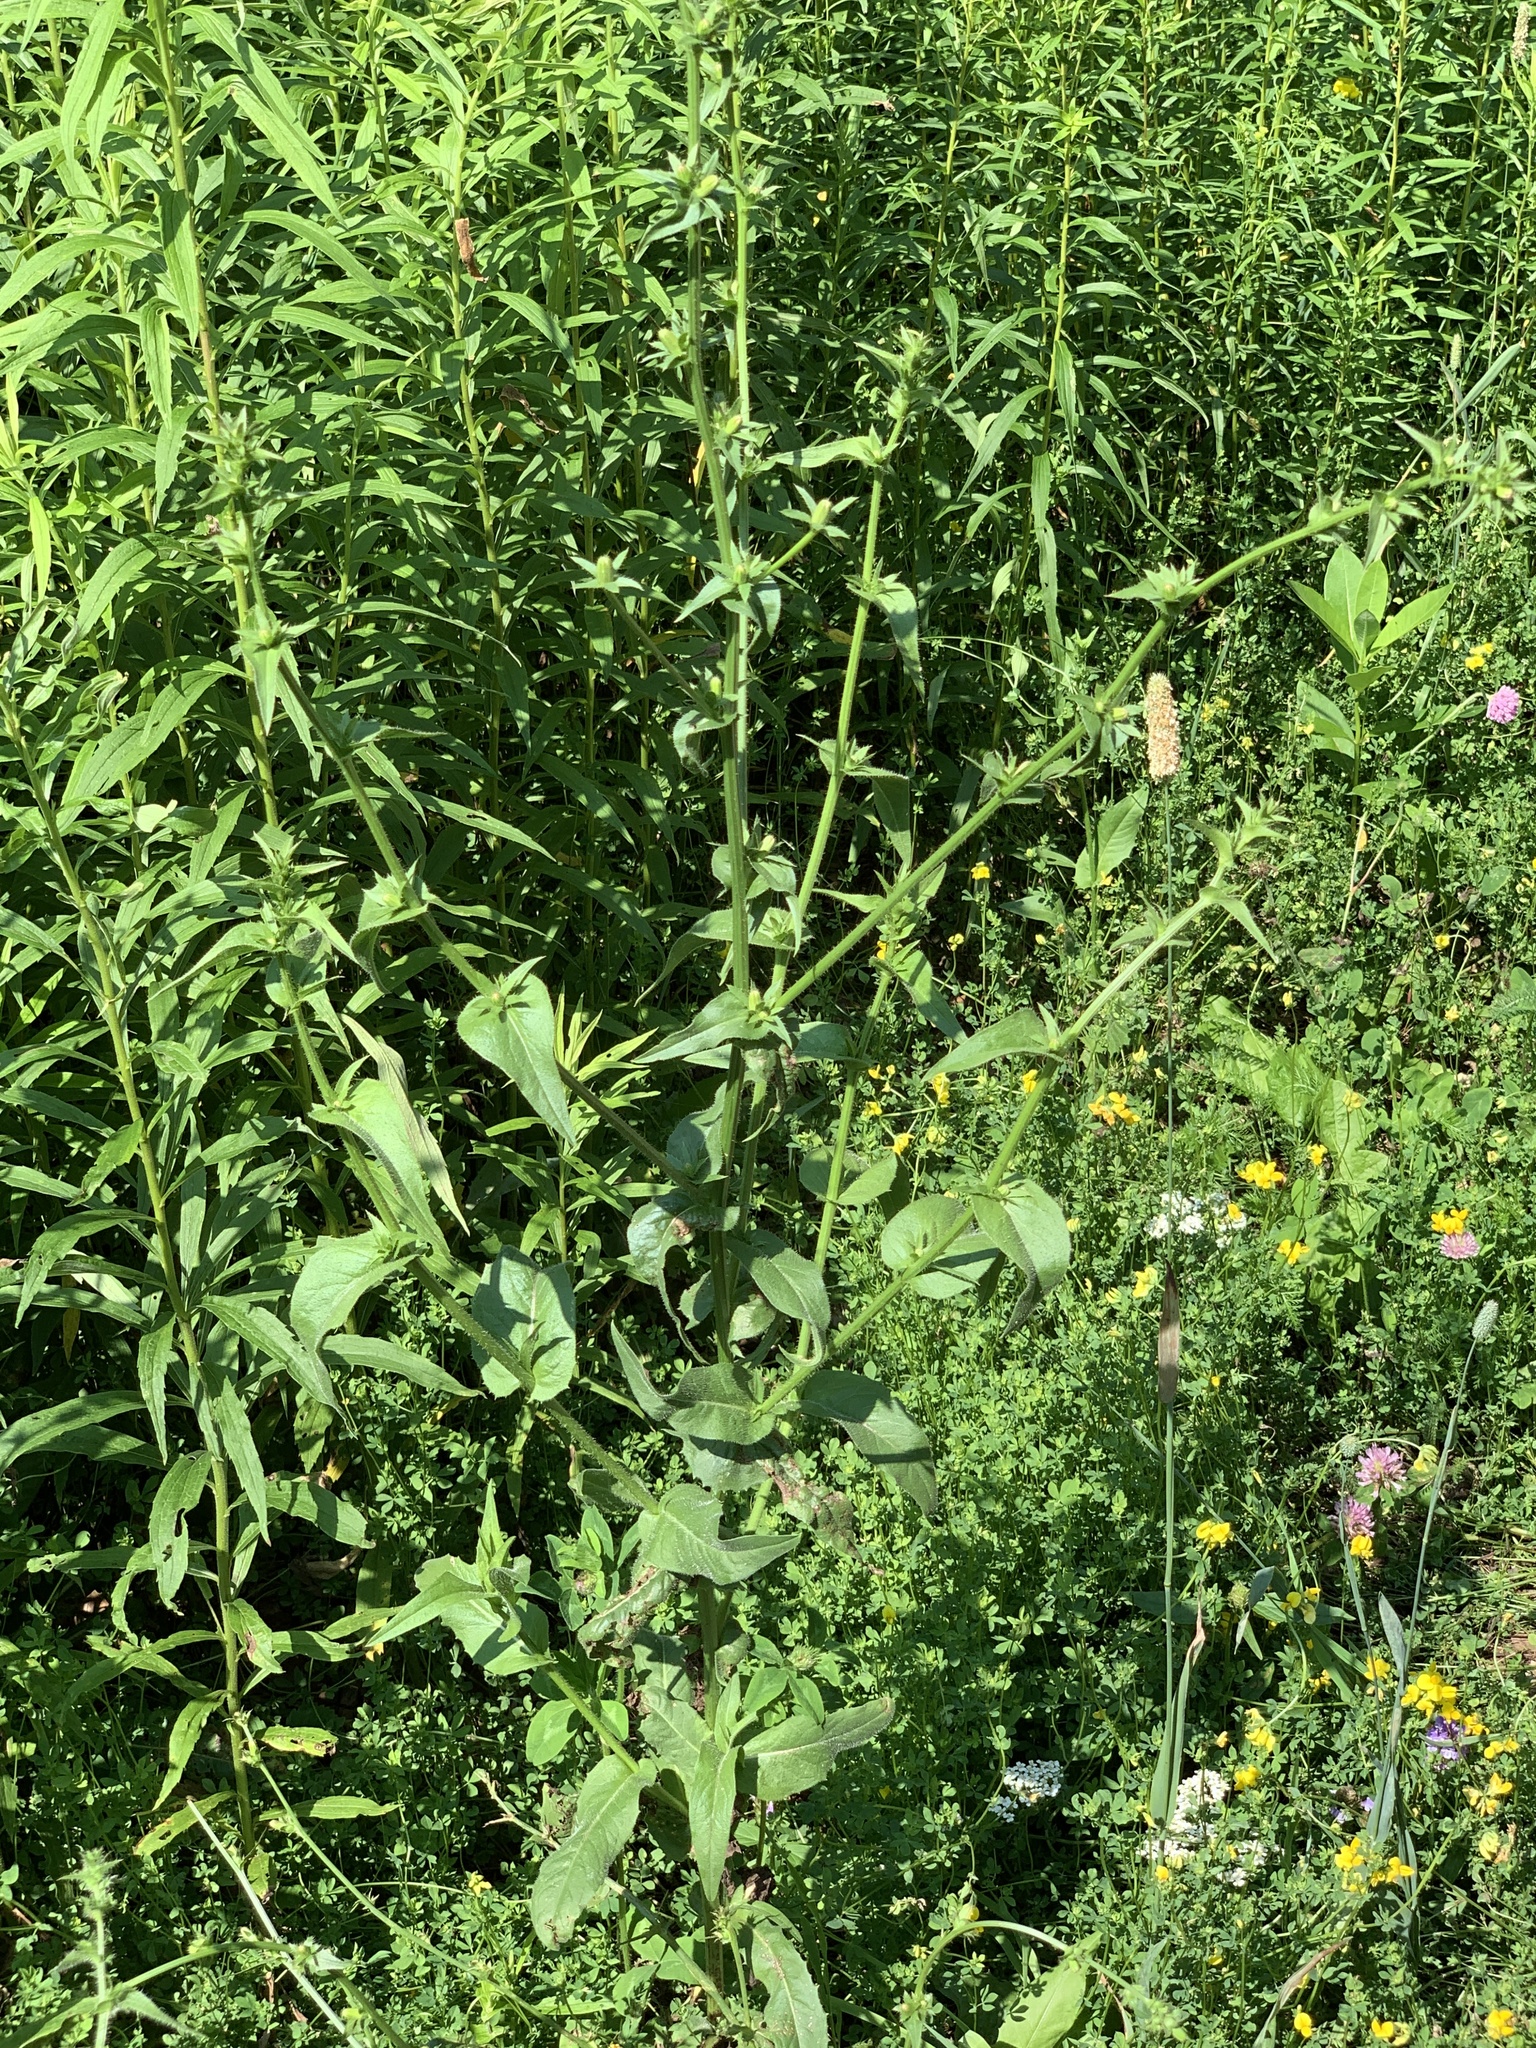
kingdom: Plantae
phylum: Tracheophyta
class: Magnoliopsida
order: Asterales
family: Asteraceae
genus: Cichorium
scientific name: Cichorium intybus
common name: Chicory
